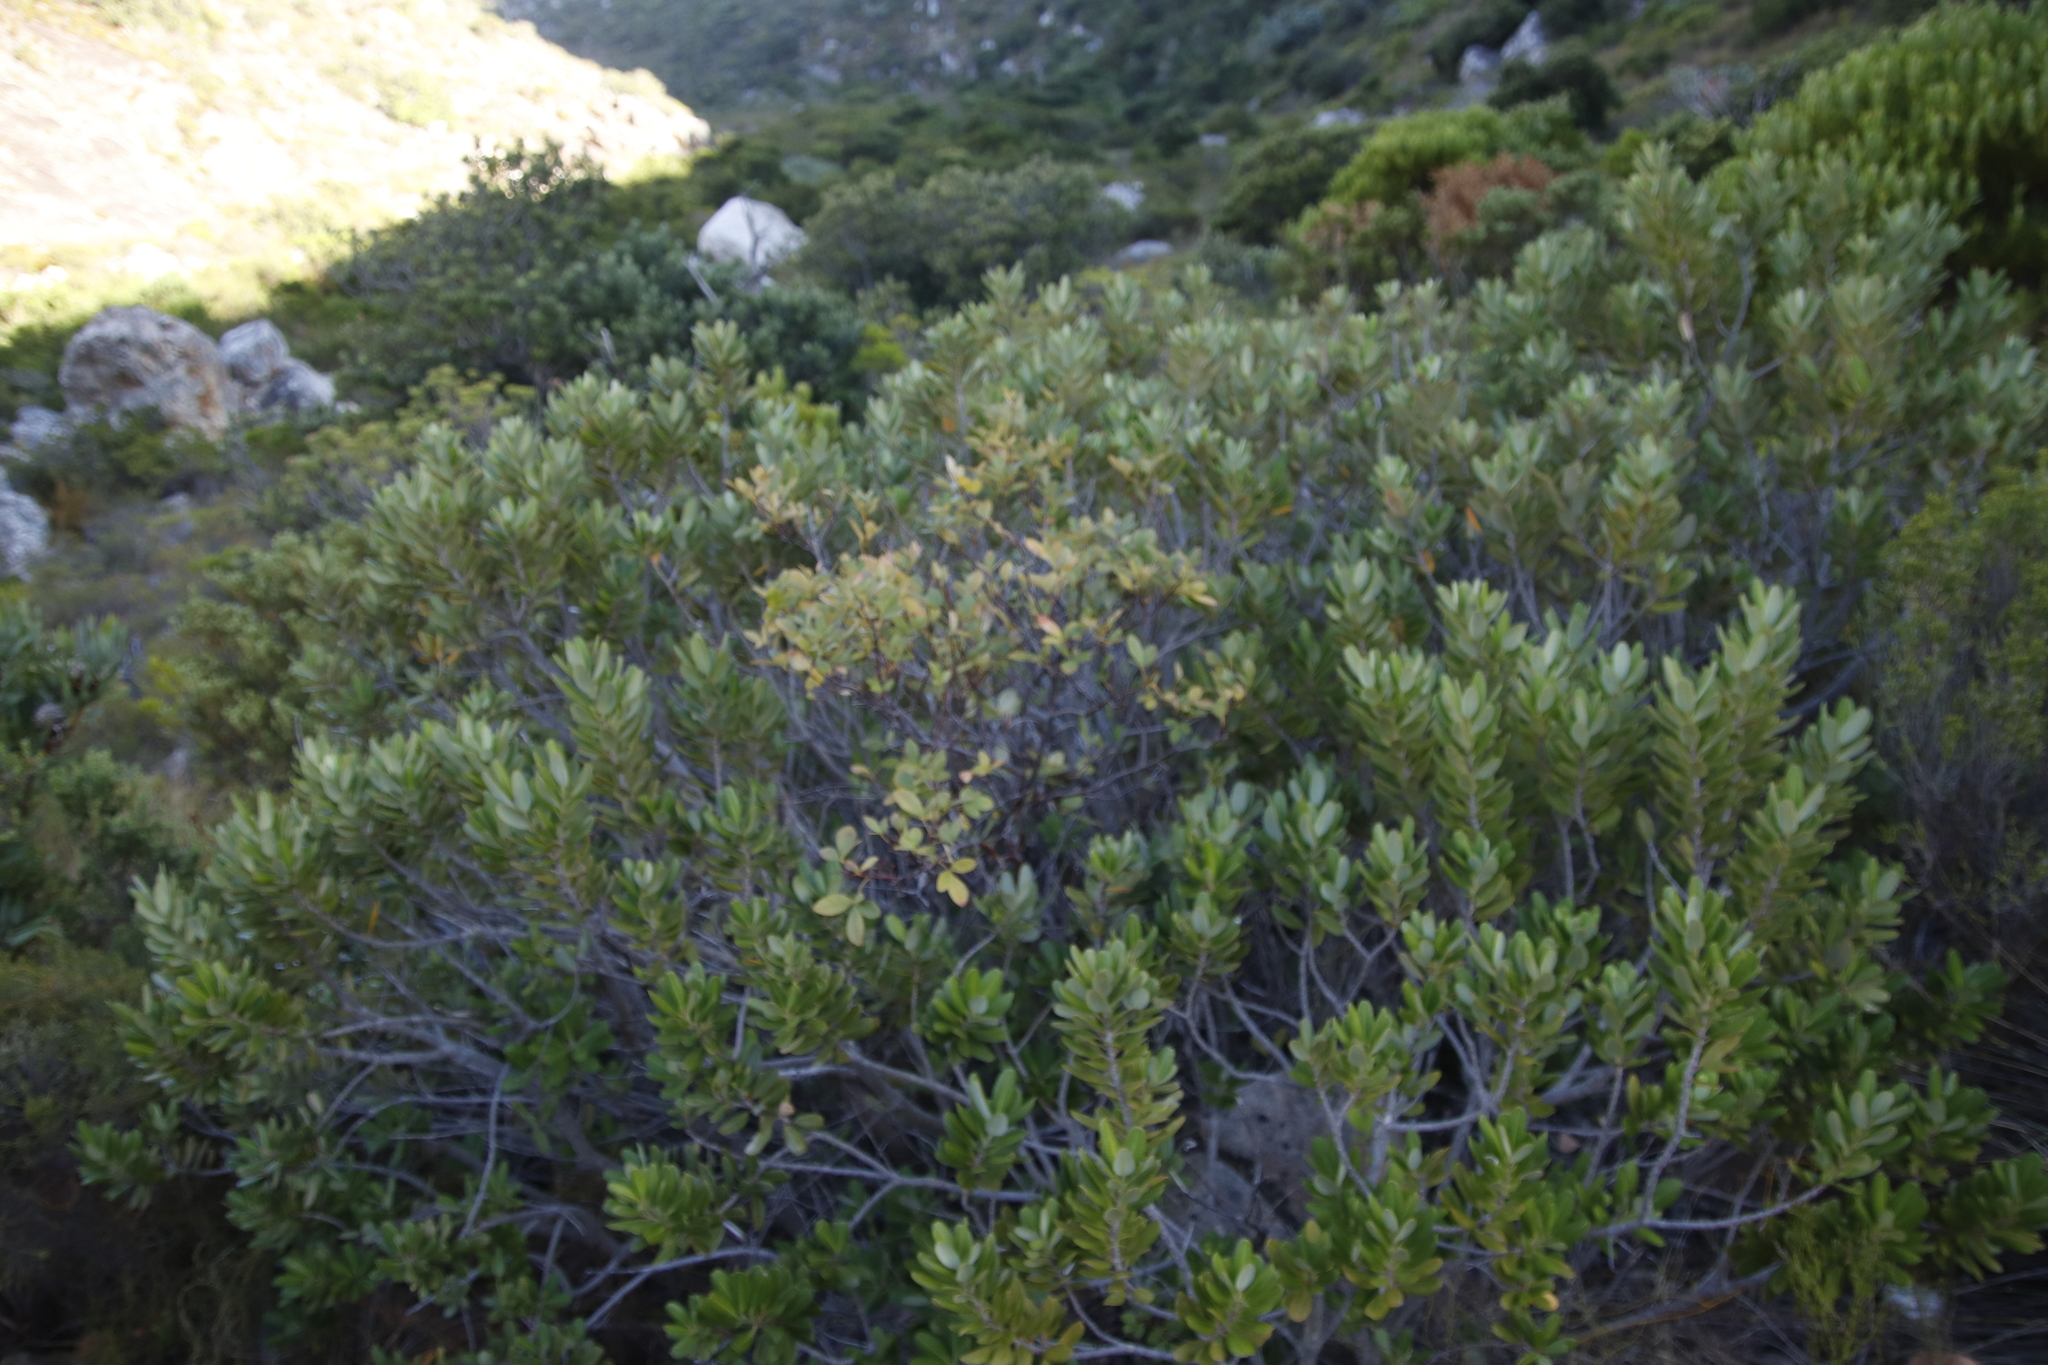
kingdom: Plantae
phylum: Tracheophyta
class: Magnoliopsida
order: Sapindales
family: Anacardiaceae
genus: Heeria
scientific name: Heeria argentea
